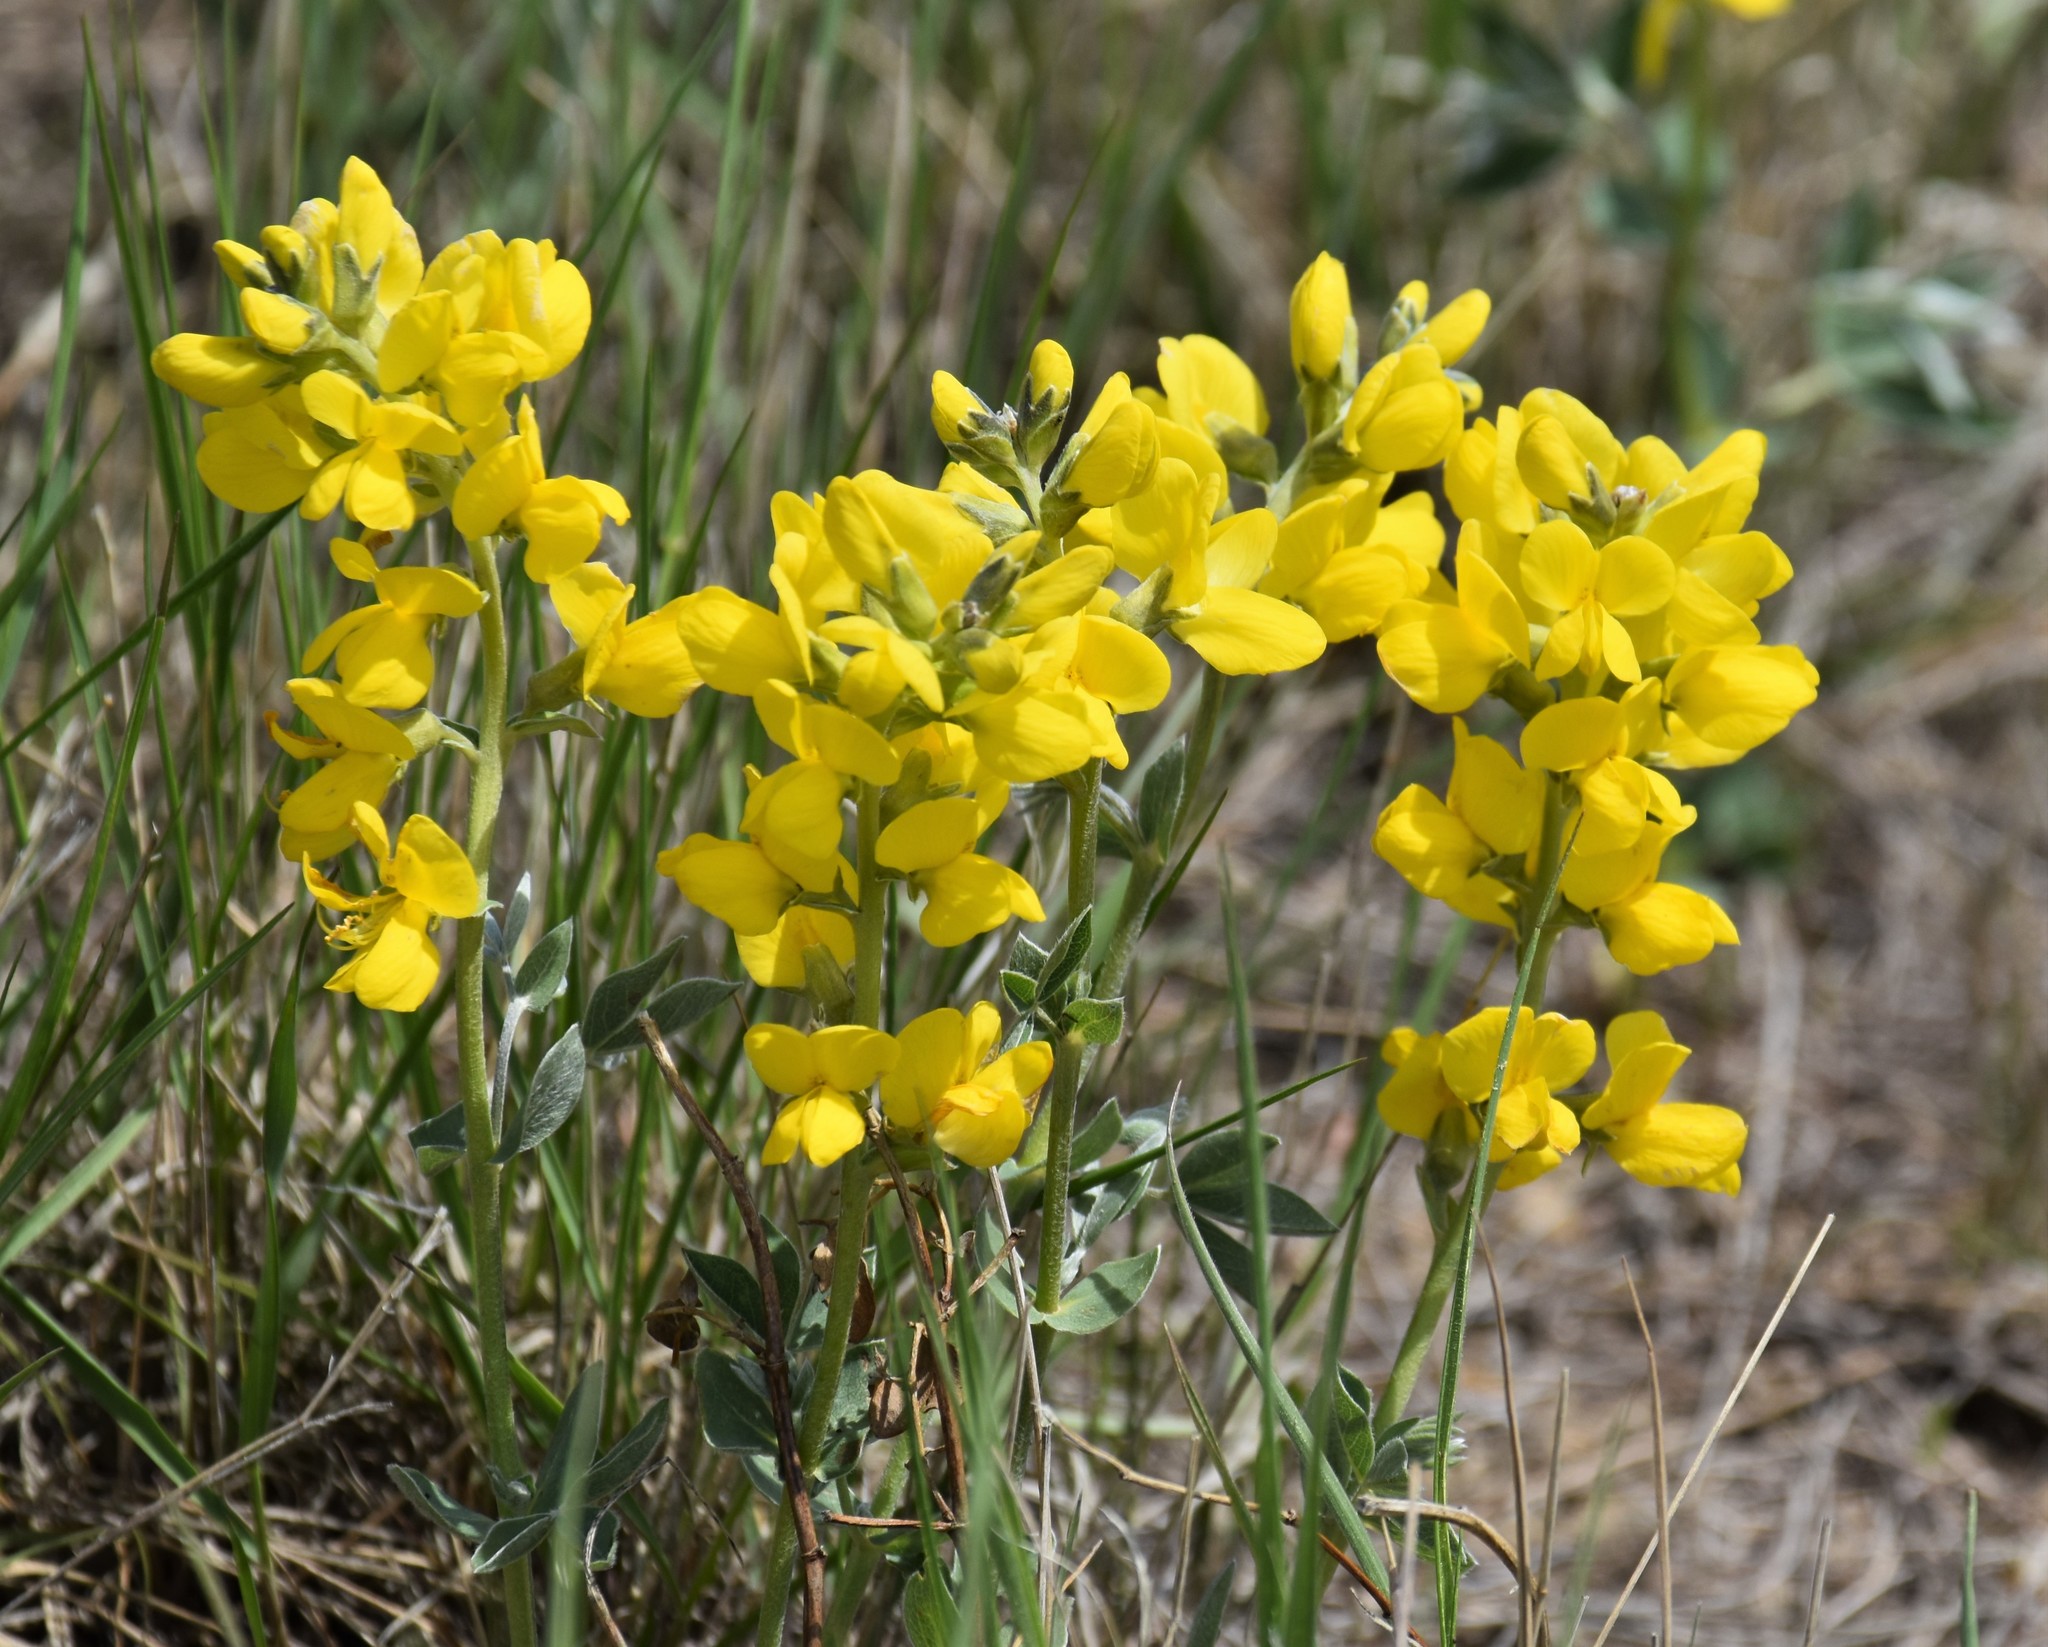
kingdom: Plantae
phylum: Tracheophyta
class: Magnoliopsida
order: Fabales
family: Fabaceae
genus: Thermopsis
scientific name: Thermopsis rhombifolia
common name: Circle-pod-pea
